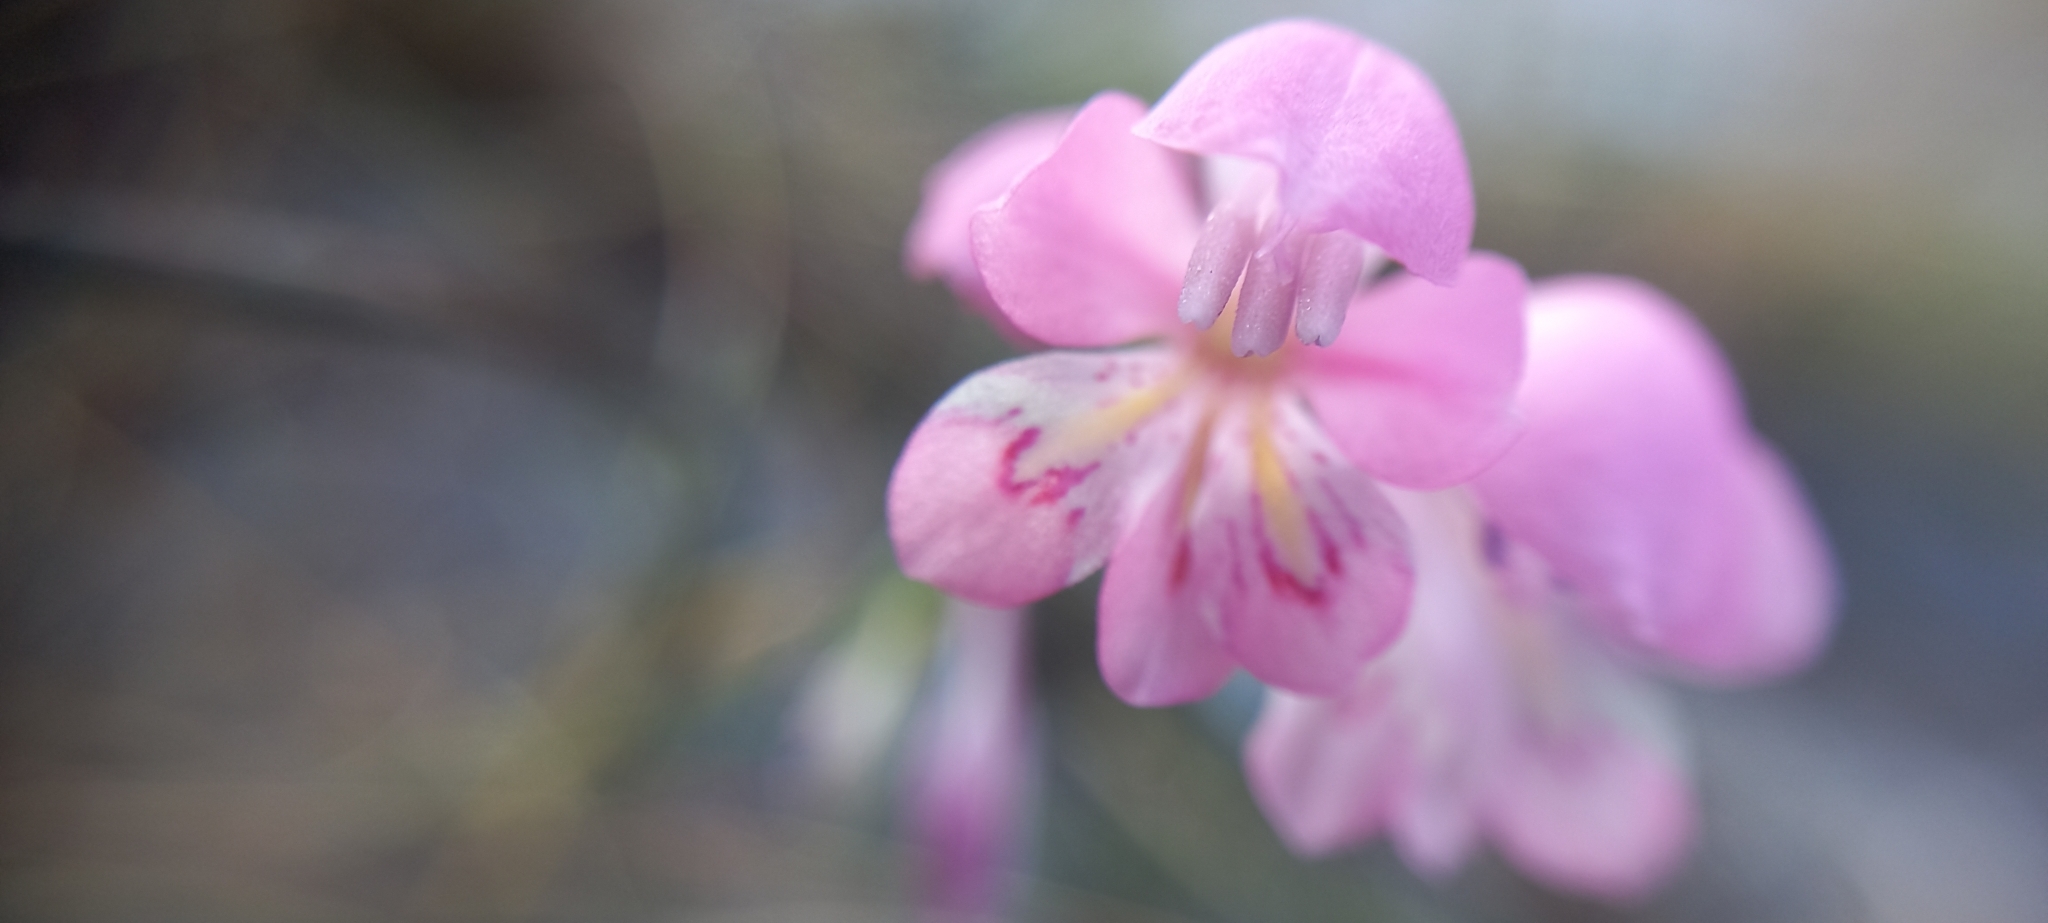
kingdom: Plantae
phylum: Tracheophyta
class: Liliopsida
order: Asparagales
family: Iridaceae
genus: Gladiolus
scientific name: Gladiolus brevifolius
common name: March pypie
